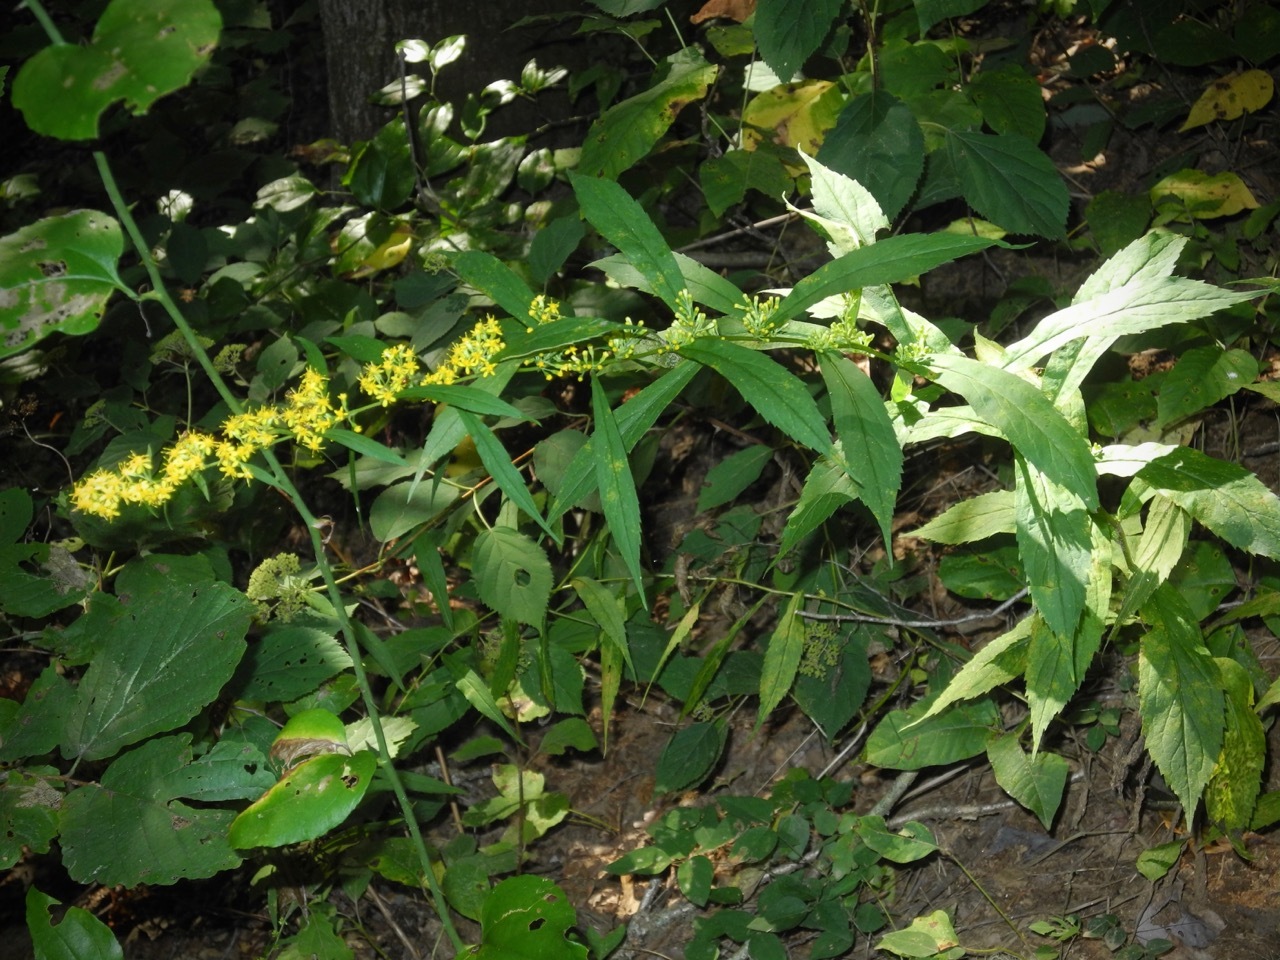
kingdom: Plantae
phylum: Tracheophyta
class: Magnoliopsida
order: Asterales
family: Asteraceae
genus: Solidago
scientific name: Solidago curtisii
